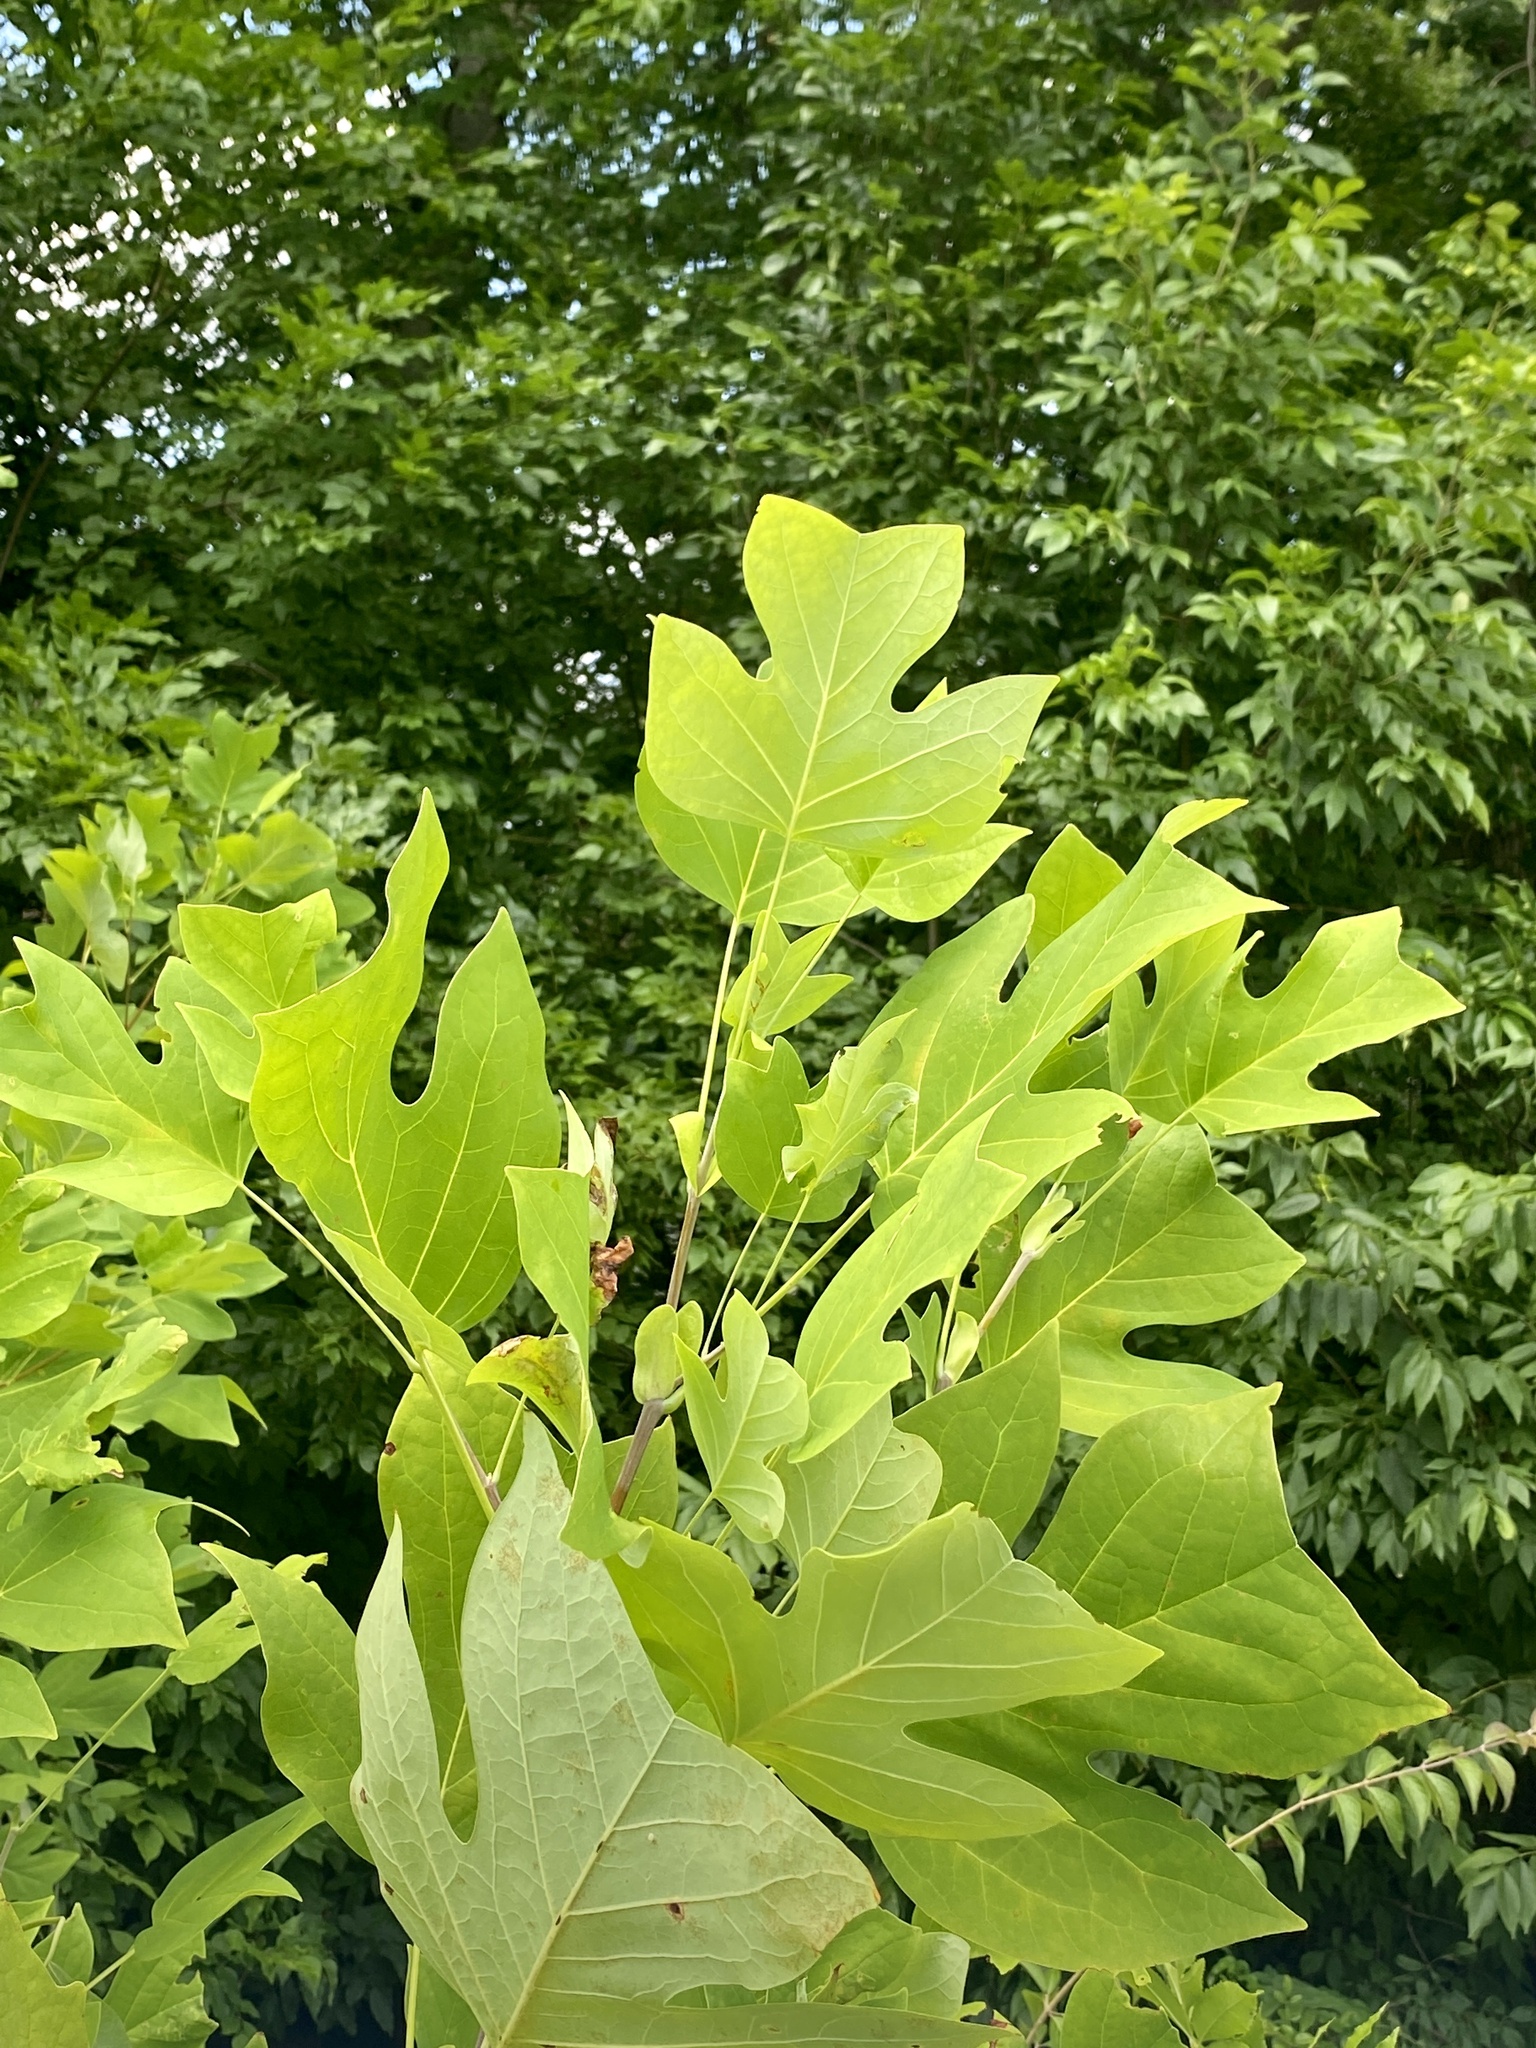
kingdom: Plantae
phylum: Tracheophyta
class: Magnoliopsida
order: Magnoliales
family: Magnoliaceae
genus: Liriodendron
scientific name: Liriodendron tulipifera
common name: Tulip tree
